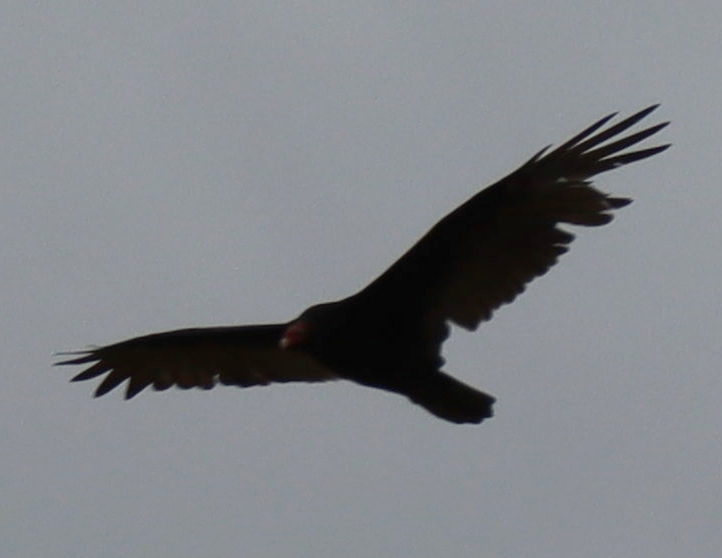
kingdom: Animalia
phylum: Chordata
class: Aves
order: Accipitriformes
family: Cathartidae
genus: Cathartes
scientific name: Cathartes aura
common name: Turkey vulture
